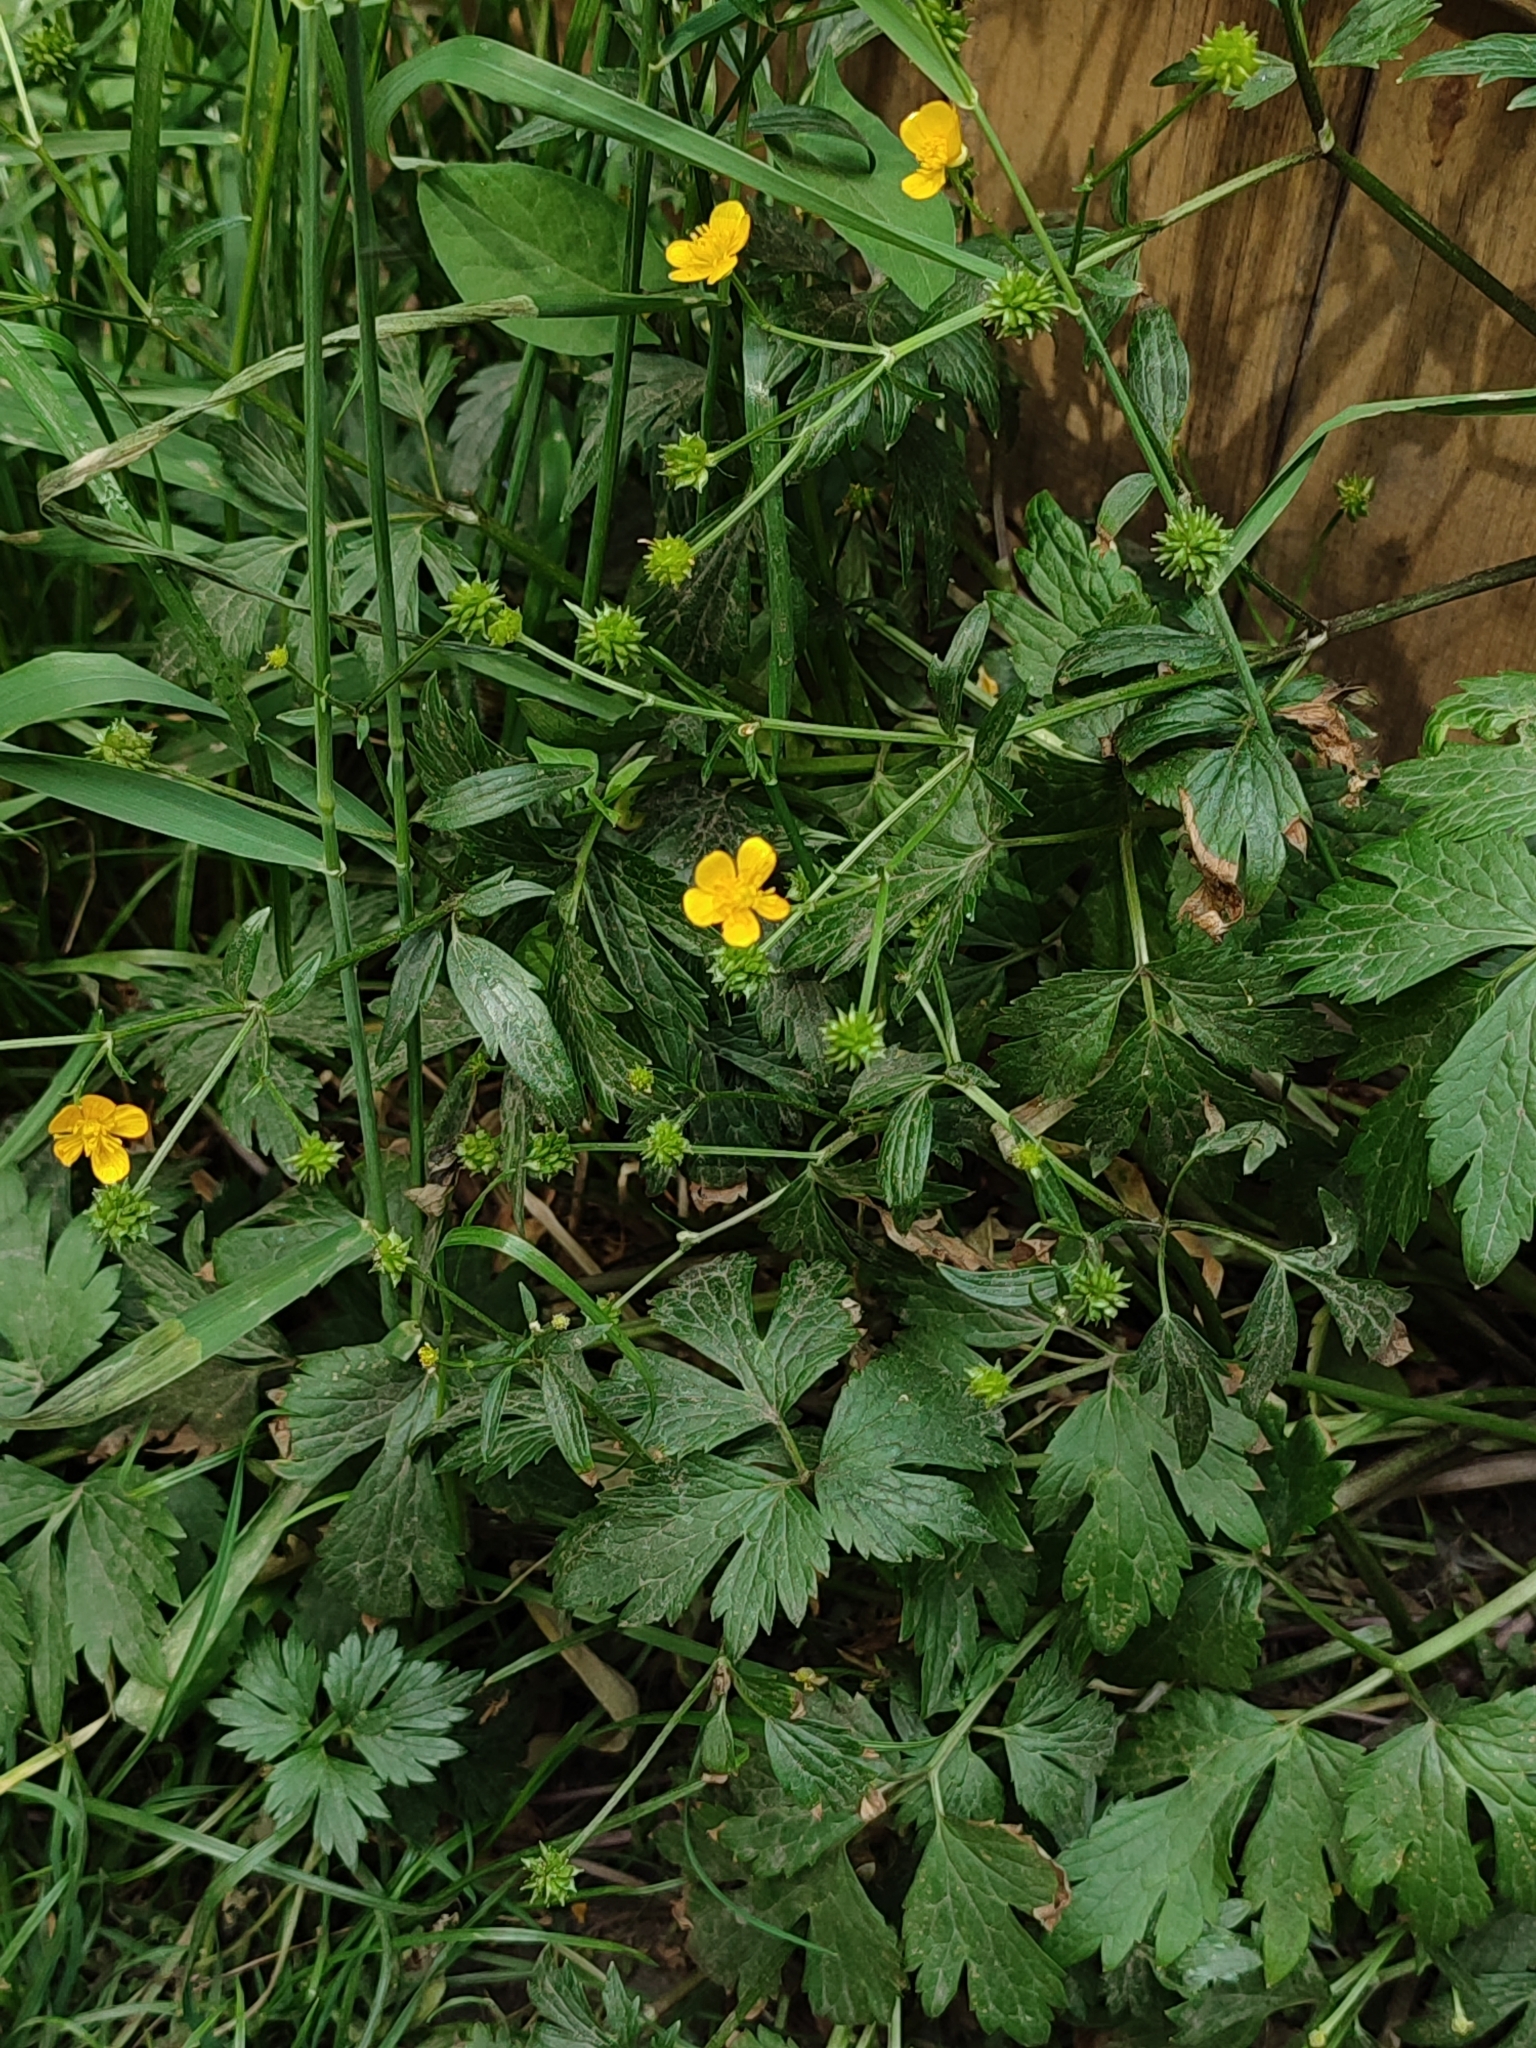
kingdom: Plantae
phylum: Tracheophyta
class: Magnoliopsida
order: Ranunculales
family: Ranunculaceae
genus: Ranunculus
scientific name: Ranunculus repens
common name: Creeping buttercup
